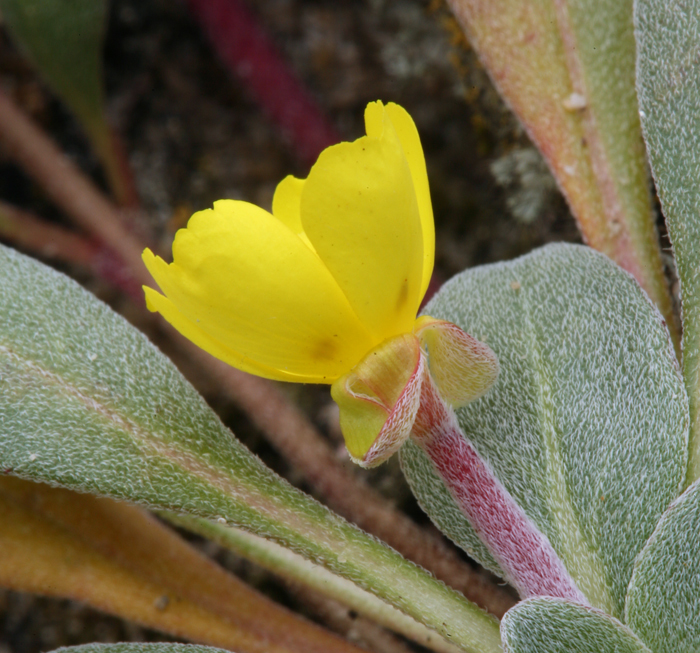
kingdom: Plantae
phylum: Tracheophyta
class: Magnoliopsida
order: Myrtales
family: Onagraceae
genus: Camissoniopsis
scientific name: Camissoniopsis cheiranthifolia
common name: Beach suncup
